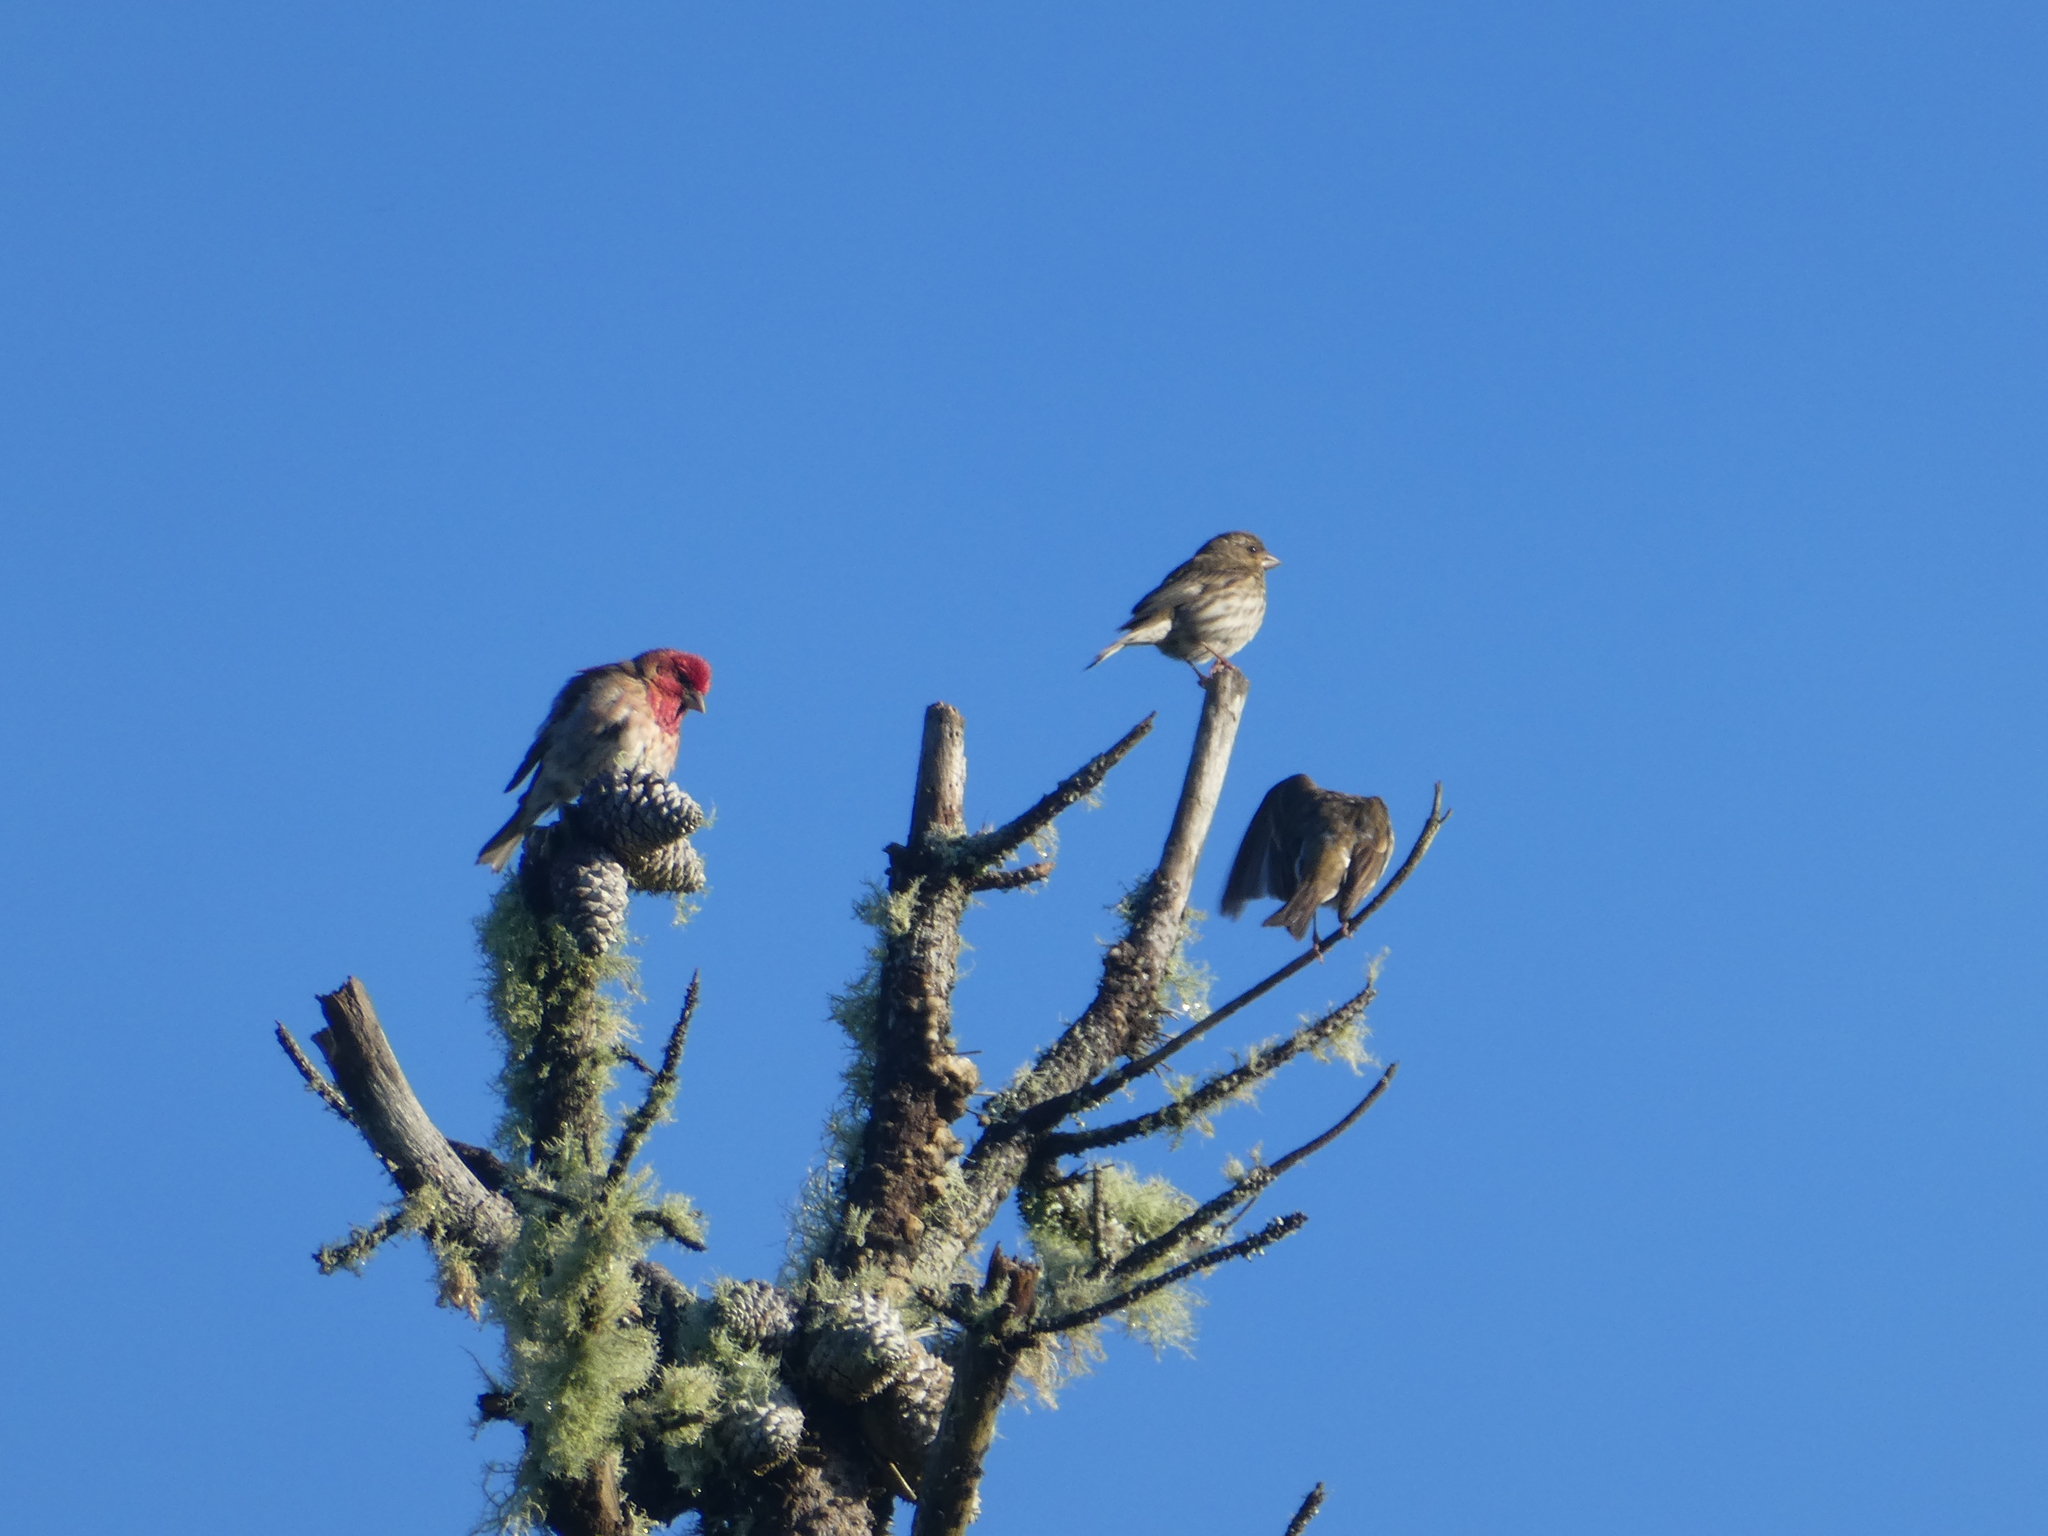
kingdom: Animalia
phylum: Chordata
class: Aves
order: Passeriformes
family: Fringillidae
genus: Haemorhous
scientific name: Haemorhous purpureus
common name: Purple finch
